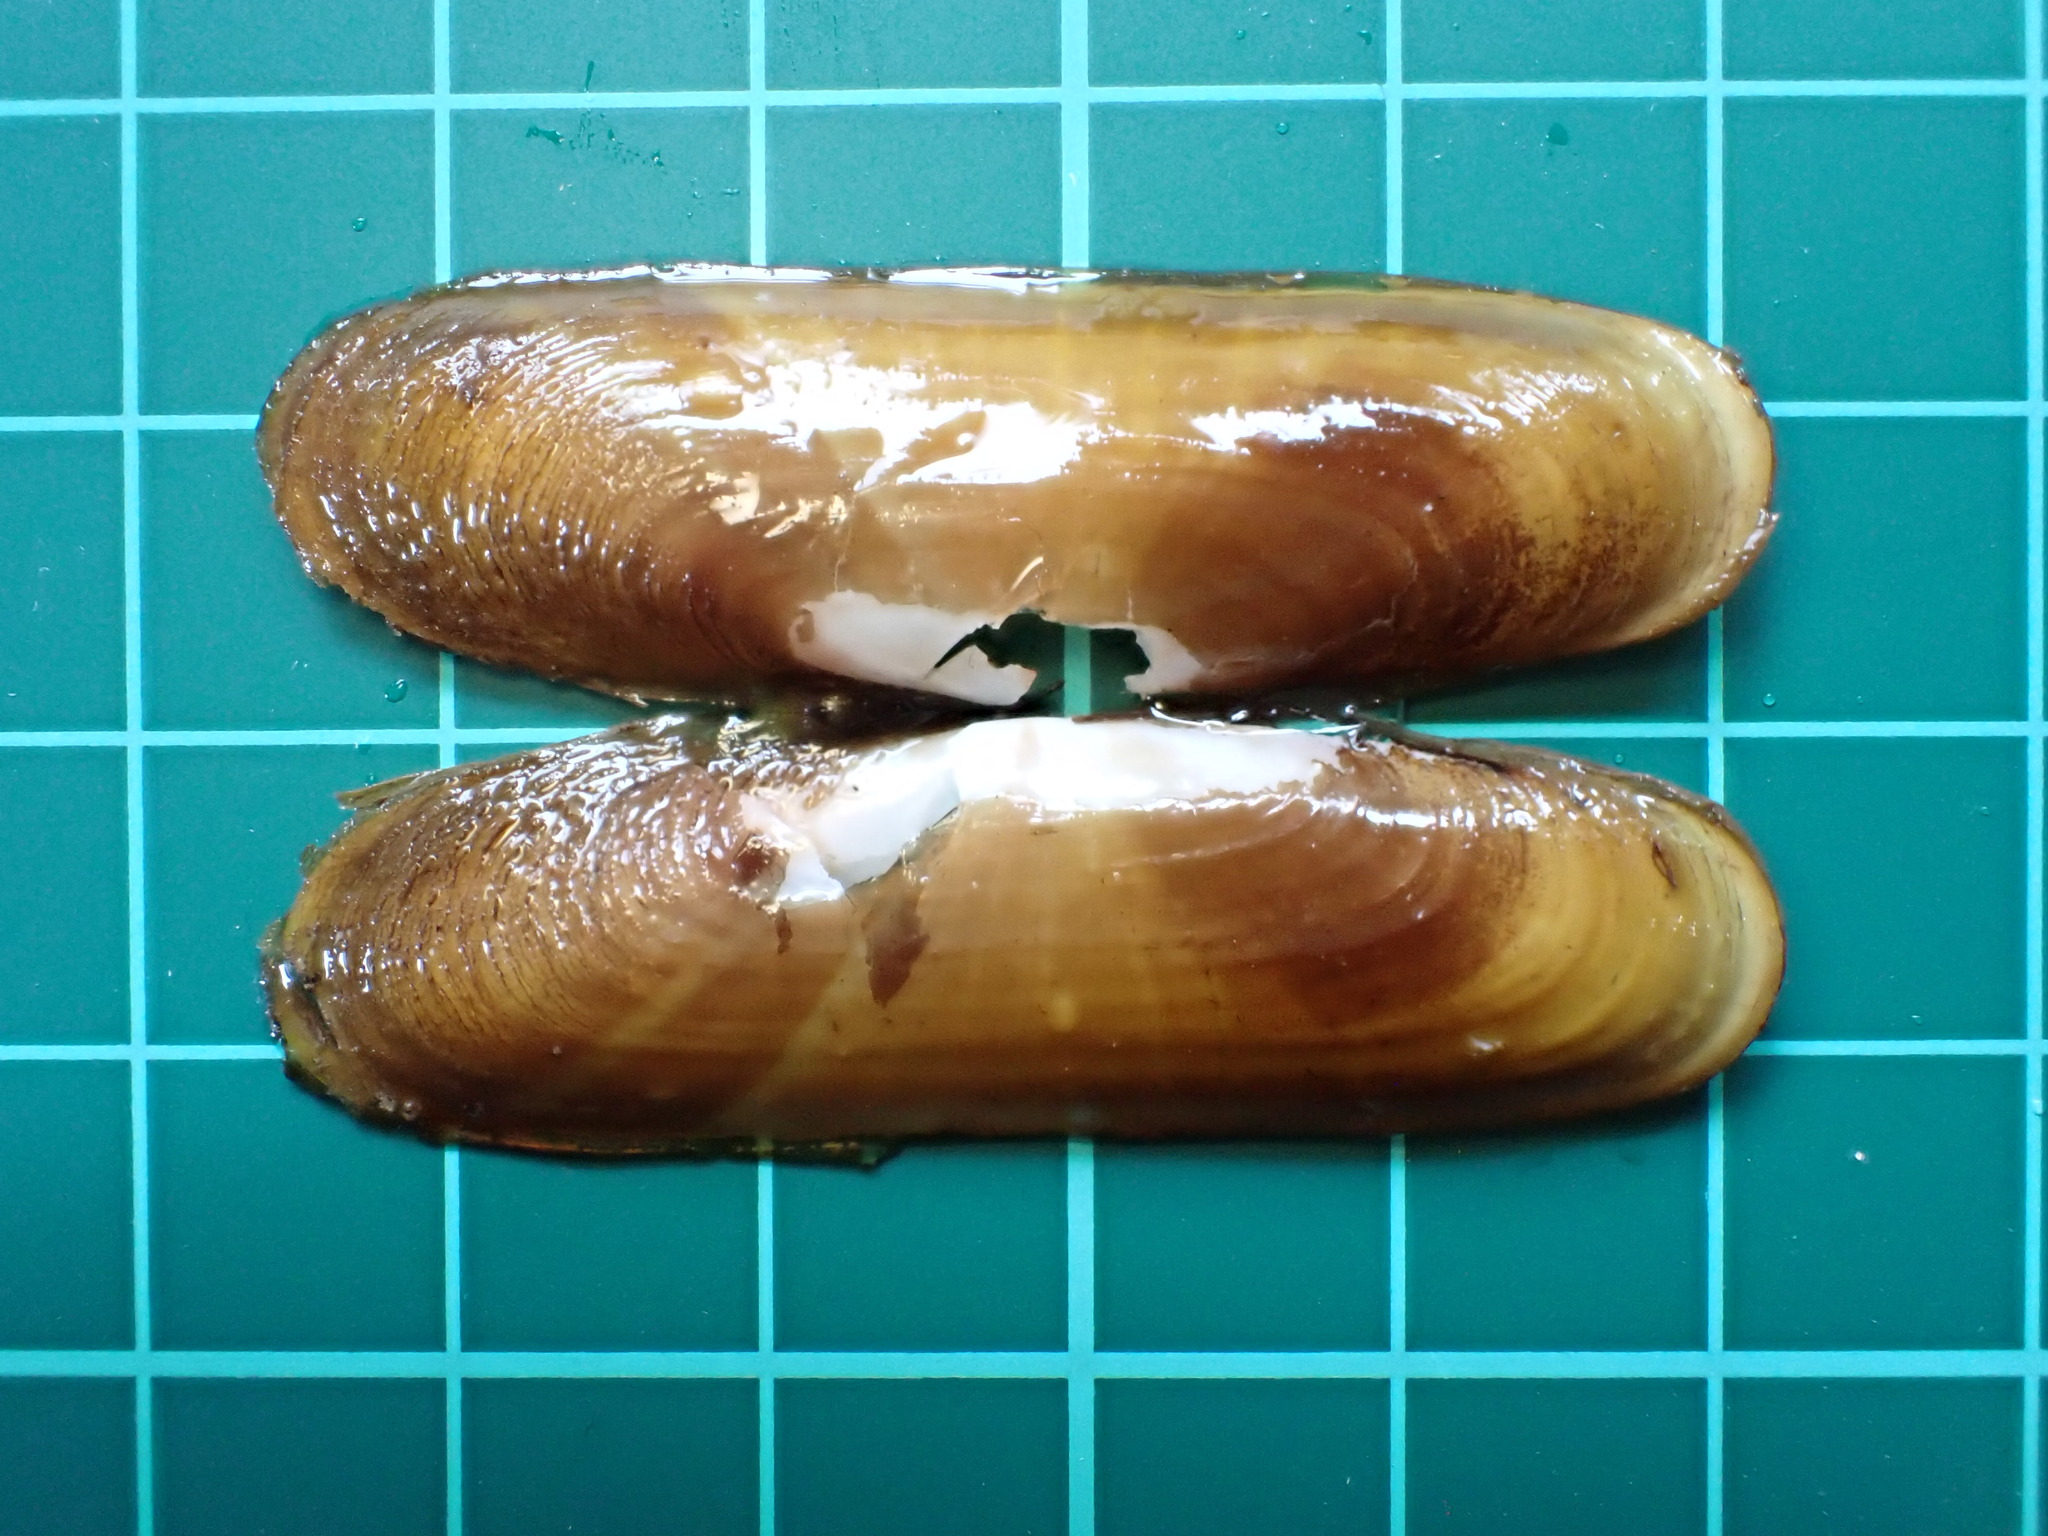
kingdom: Animalia
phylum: Mollusca
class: Bivalvia
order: Cardiida
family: Solecurtidae
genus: Tagelus
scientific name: Tagelus subteres
